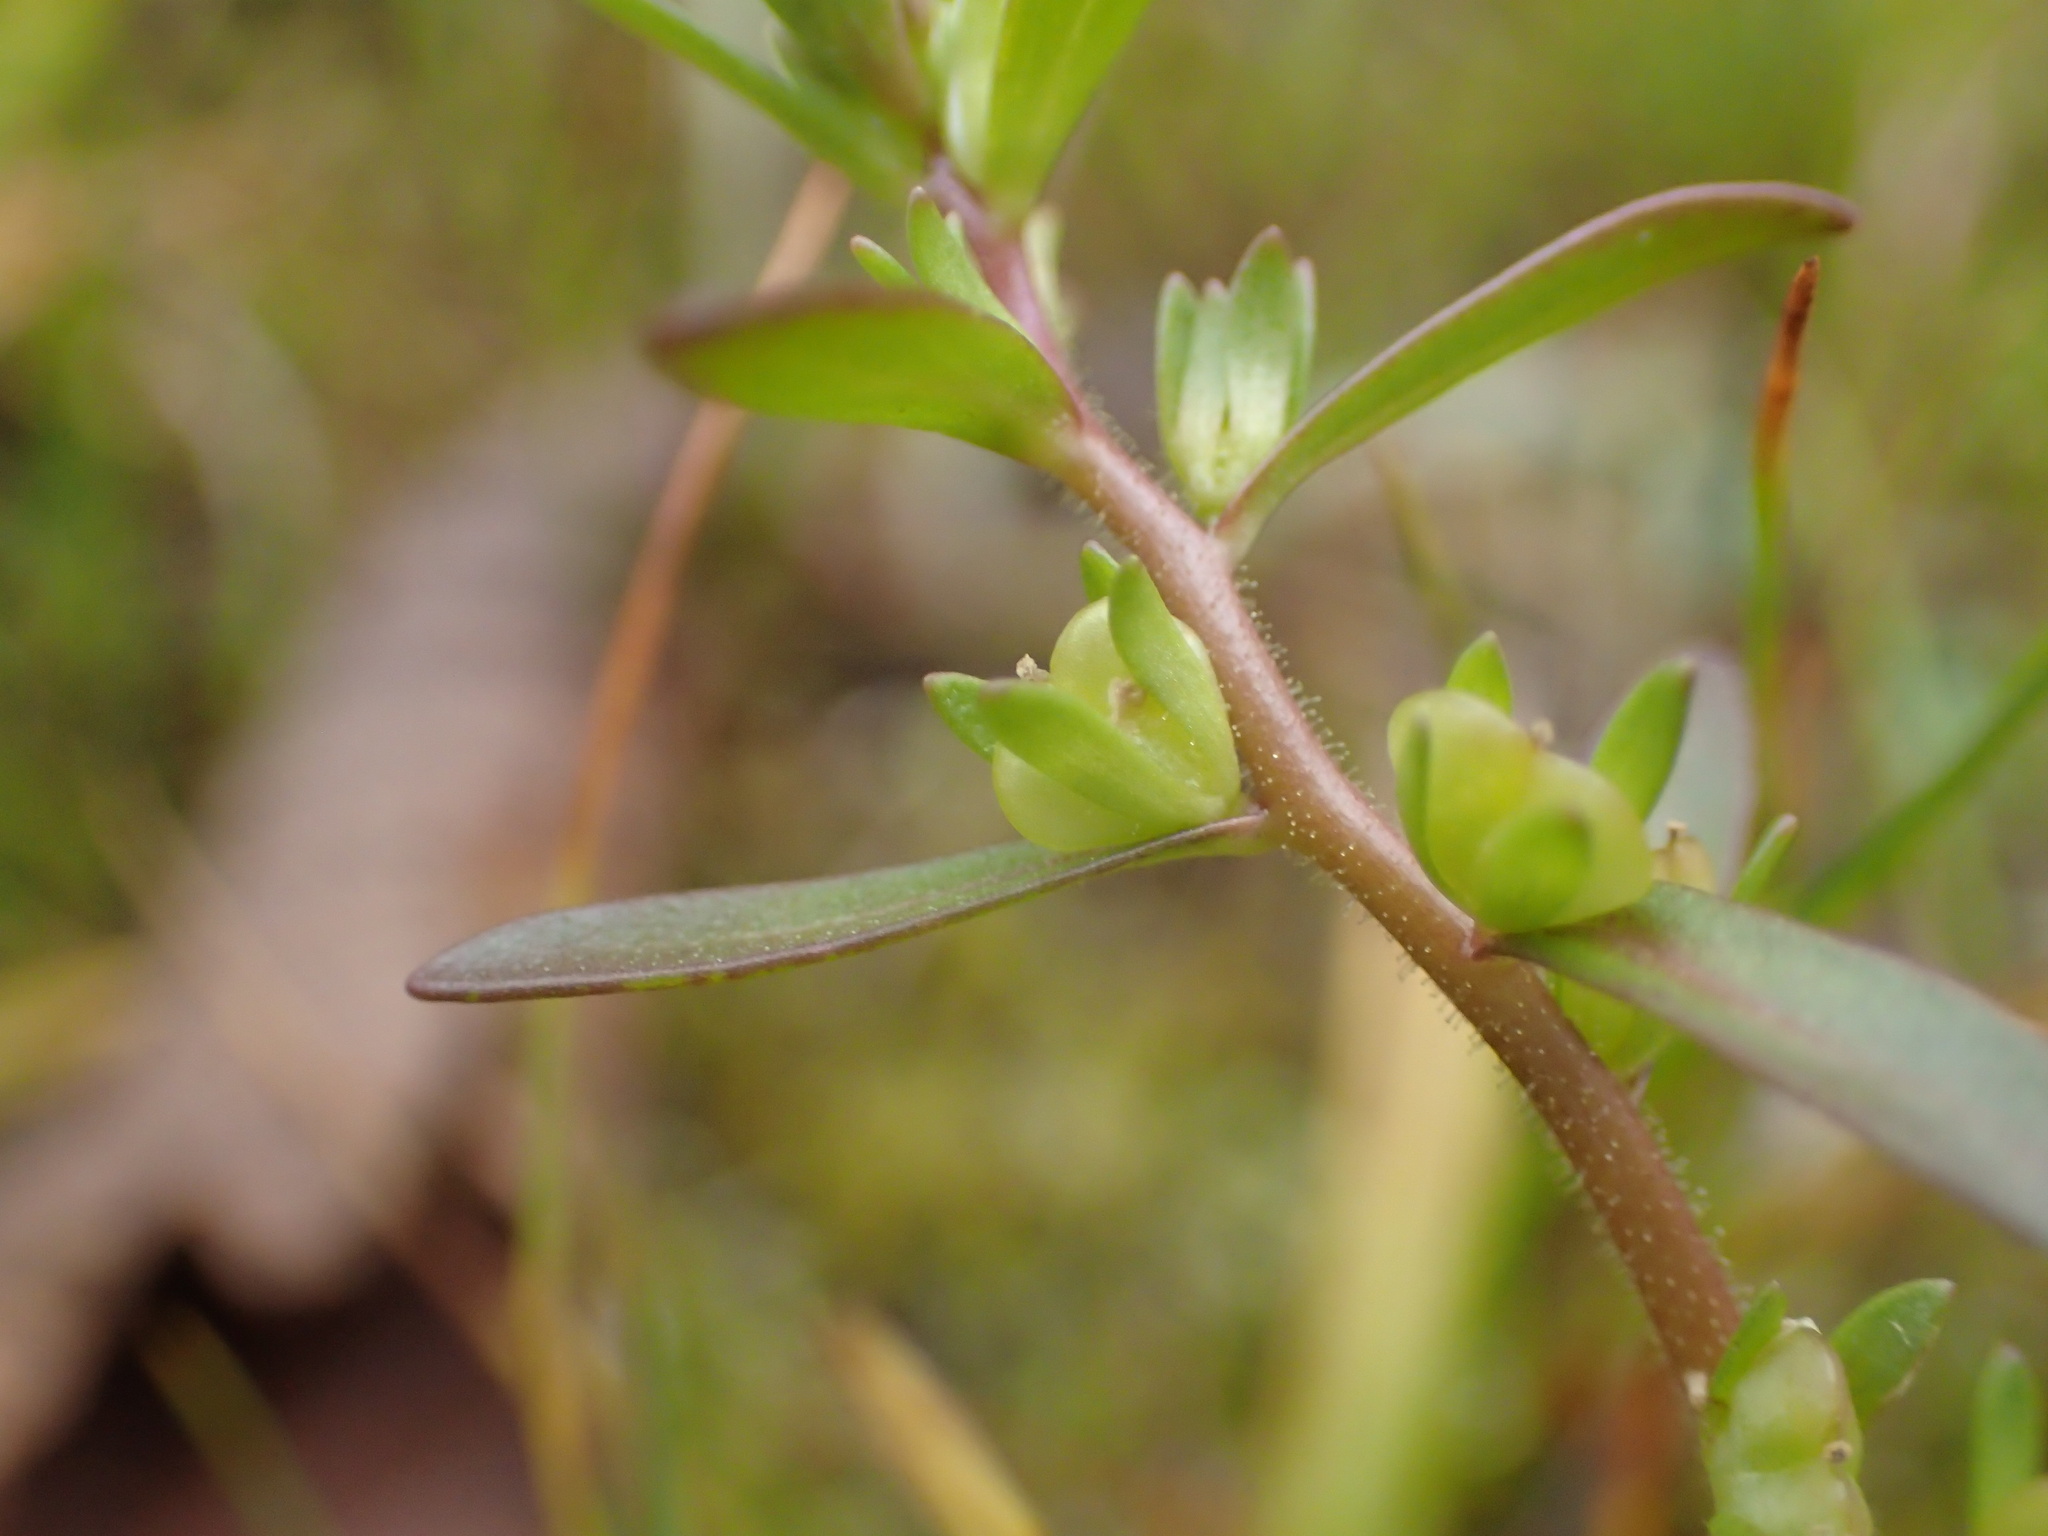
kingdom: Plantae
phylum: Tracheophyta
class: Magnoliopsida
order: Lamiales
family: Plantaginaceae
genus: Veronica
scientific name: Veronica peregrina
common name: Neckweed
